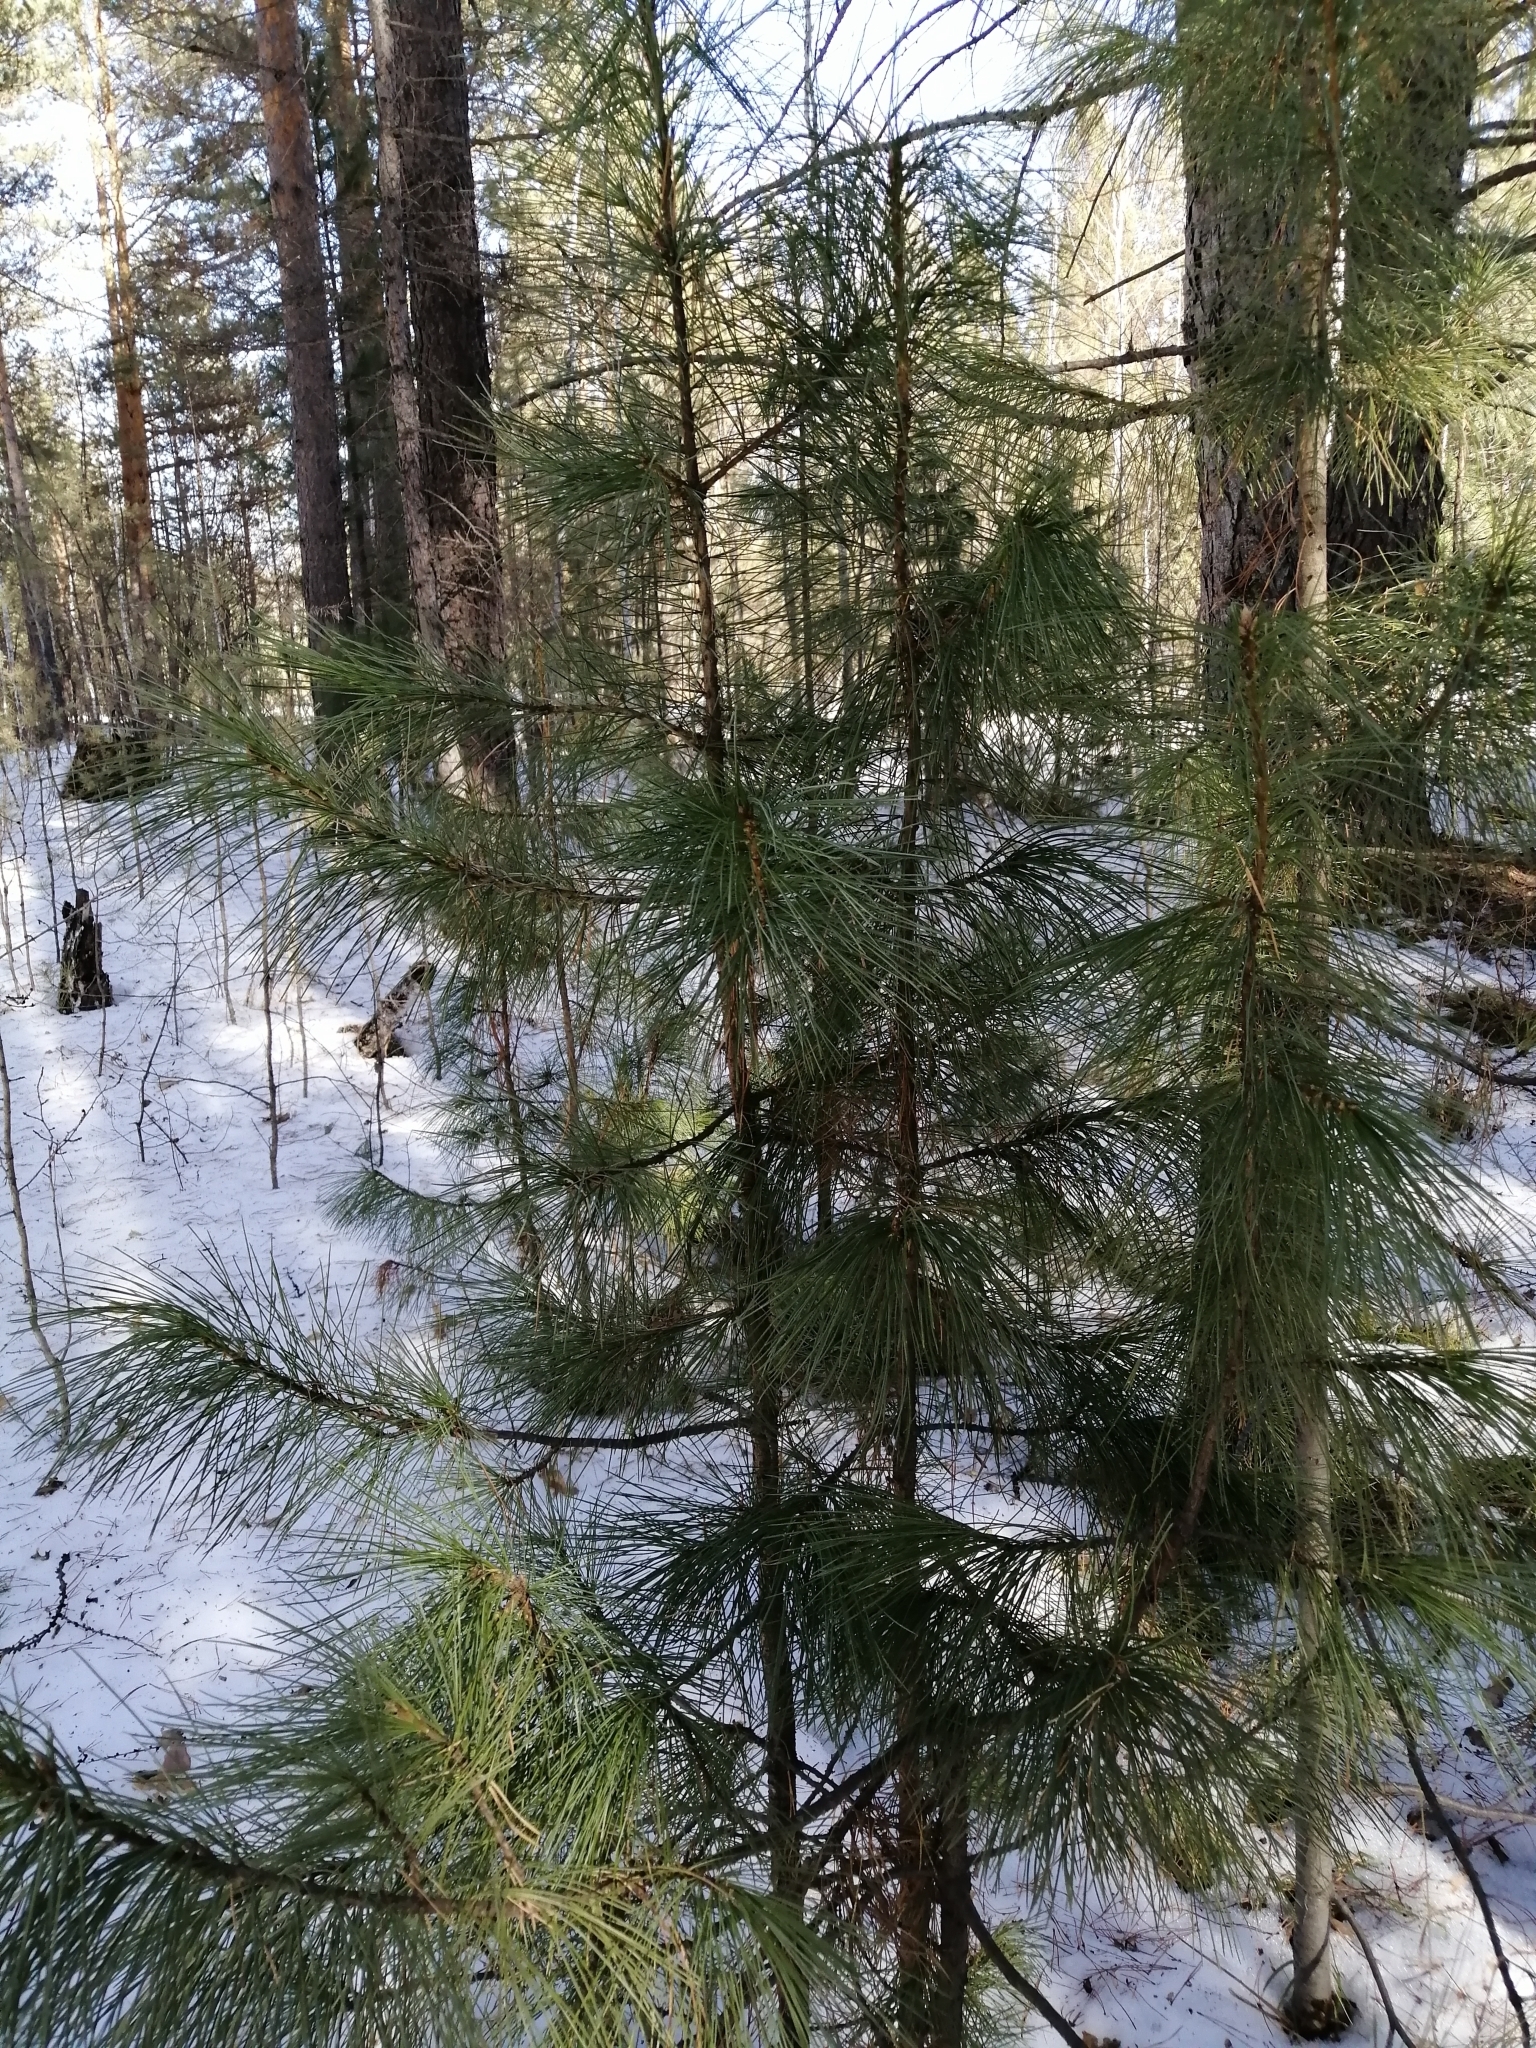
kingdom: Plantae
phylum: Tracheophyta
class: Pinopsida
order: Pinales
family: Pinaceae
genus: Pinus
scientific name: Pinus sibirica
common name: Siberian pine
